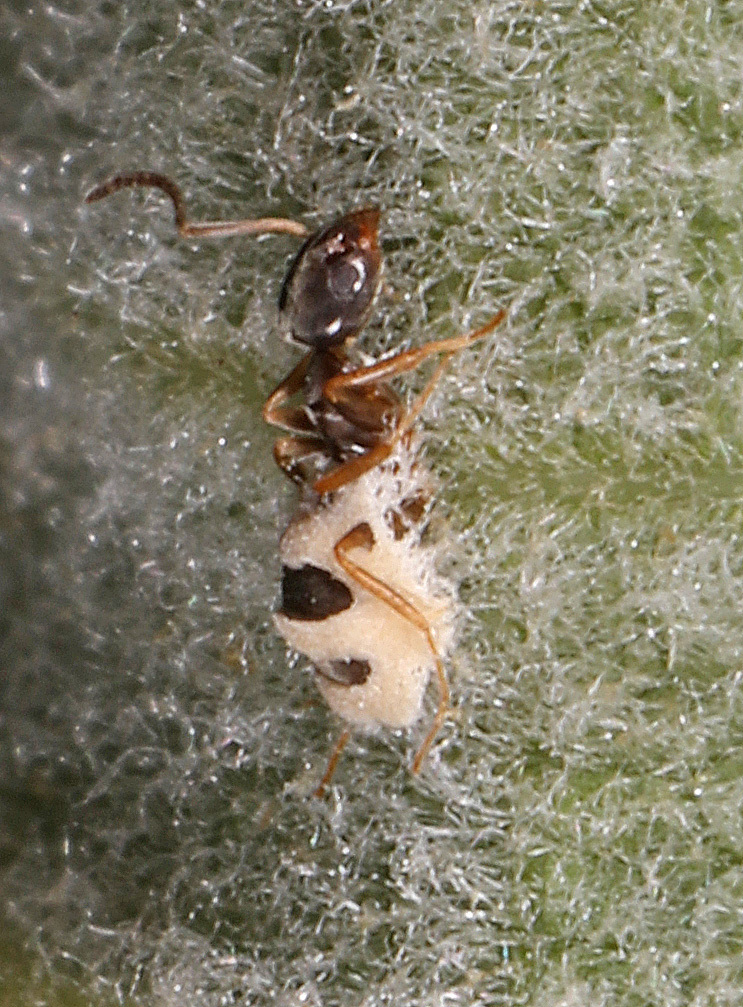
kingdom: Animalia
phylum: Arthropoda
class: Insecta
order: Hymenoptera
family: Formicidae
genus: Tapinoma
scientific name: Tapinoma sessile
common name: Odorous house ant
